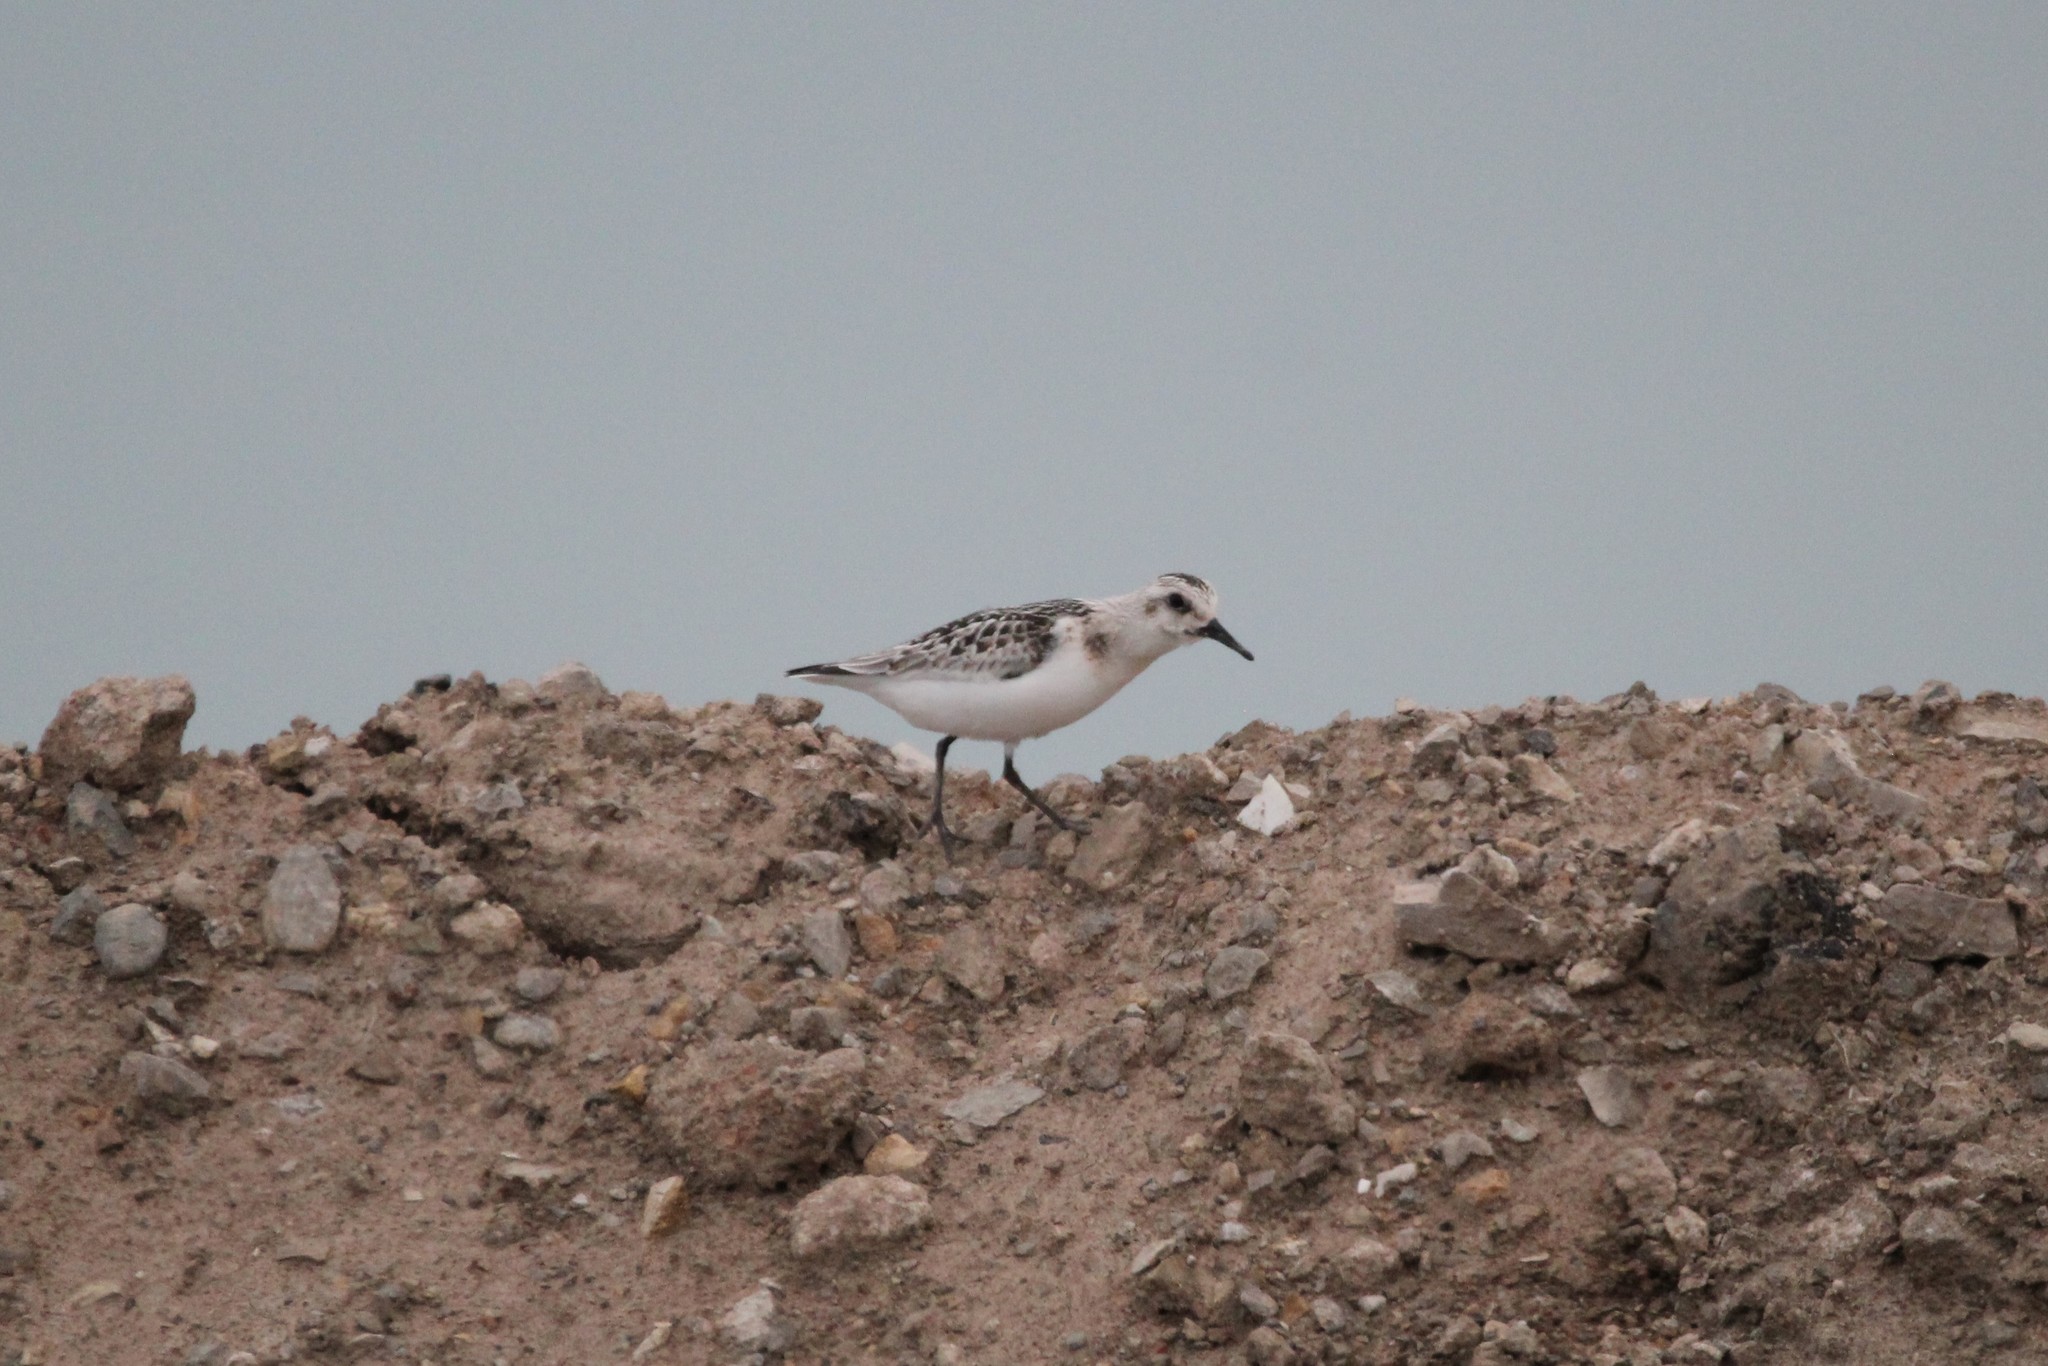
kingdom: Animalia
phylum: Chordata
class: Aves
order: Charadriiformes
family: Scolopacidae
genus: Calidris
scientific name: Calidris alba
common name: Sanderling
